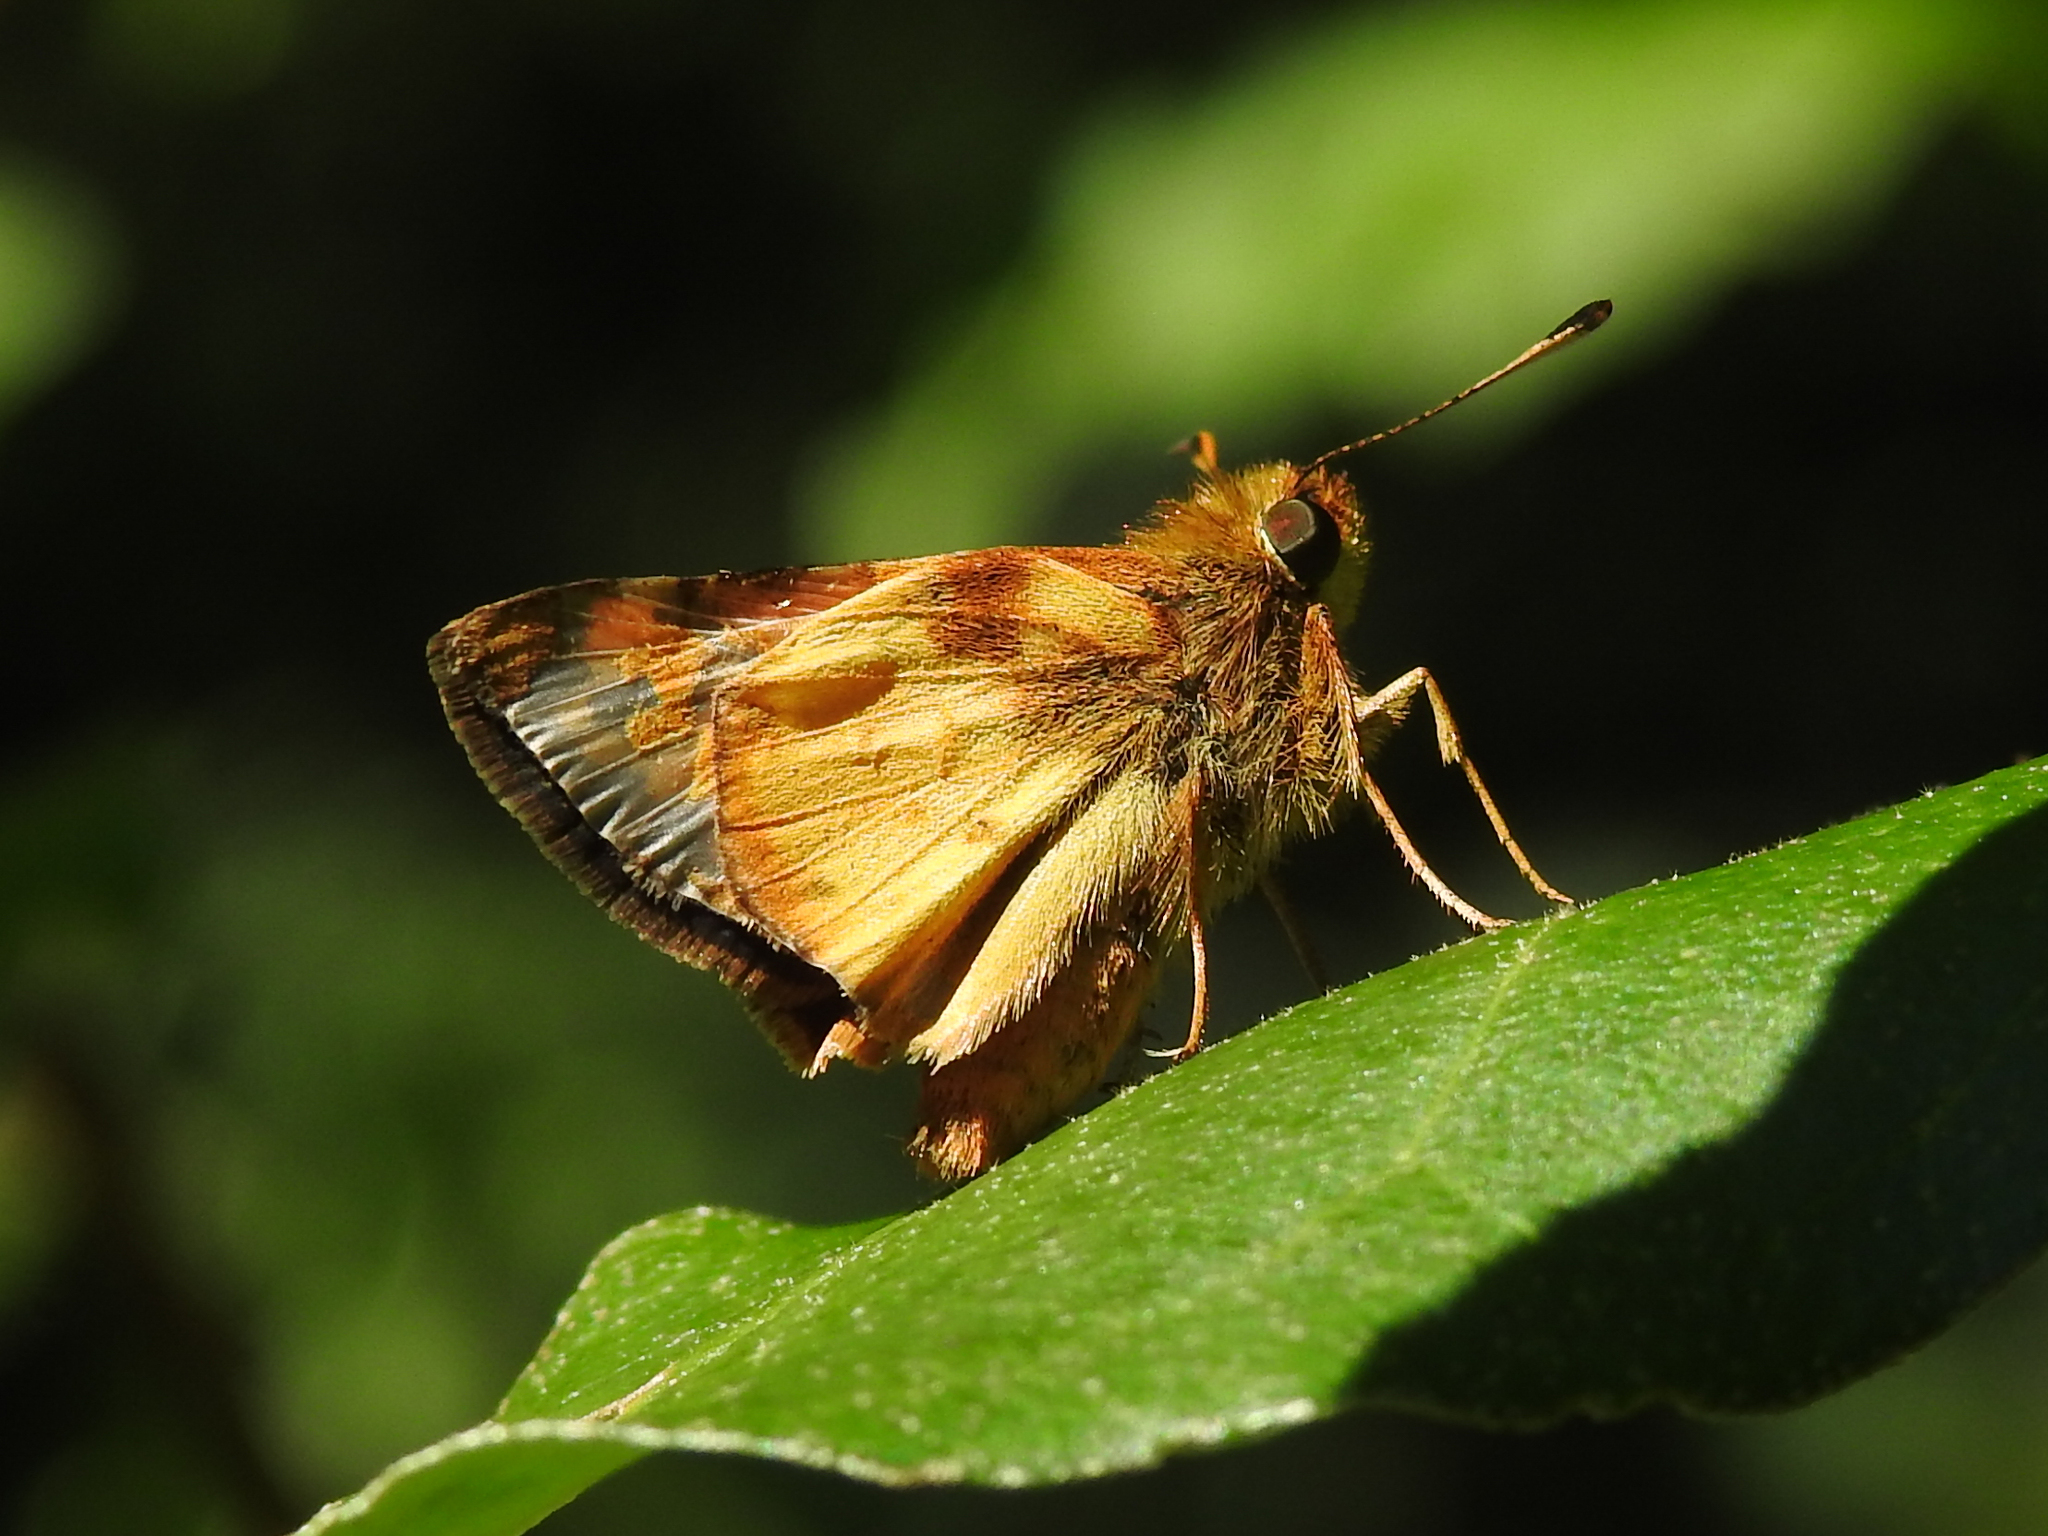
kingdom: Animalia
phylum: Arthropoda
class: Insecta
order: Lepidoptera
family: Hesperiidae
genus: Lon
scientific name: Lon zabulon
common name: Zabulon skipper
